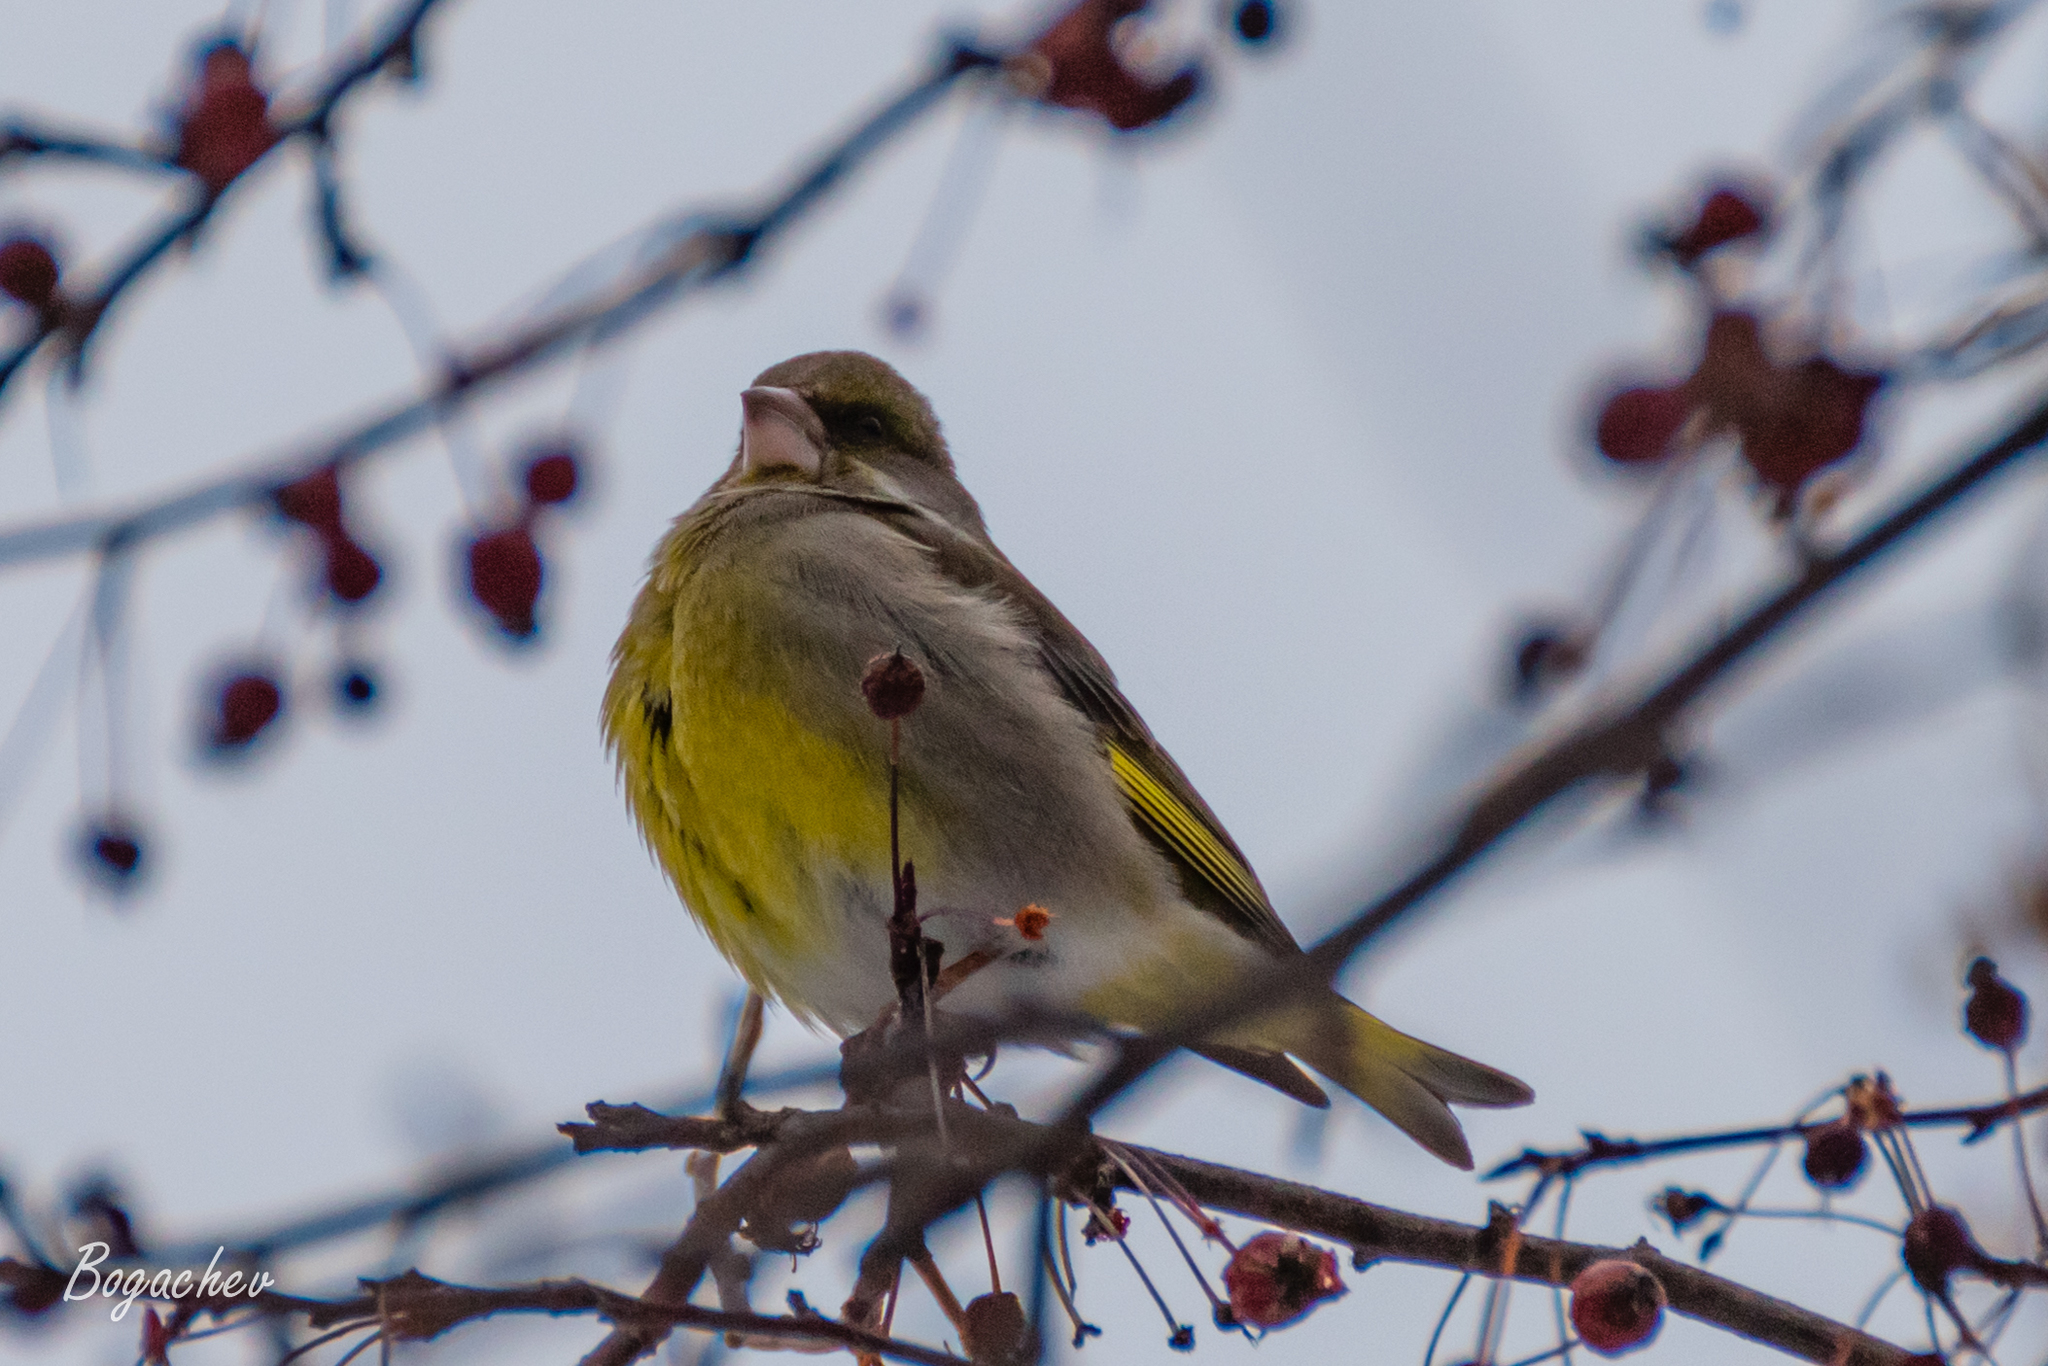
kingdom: Plantae
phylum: Tracheophyta
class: Liliopsida
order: Poales
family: Poaceae
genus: Chloris
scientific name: Chloris chloris
